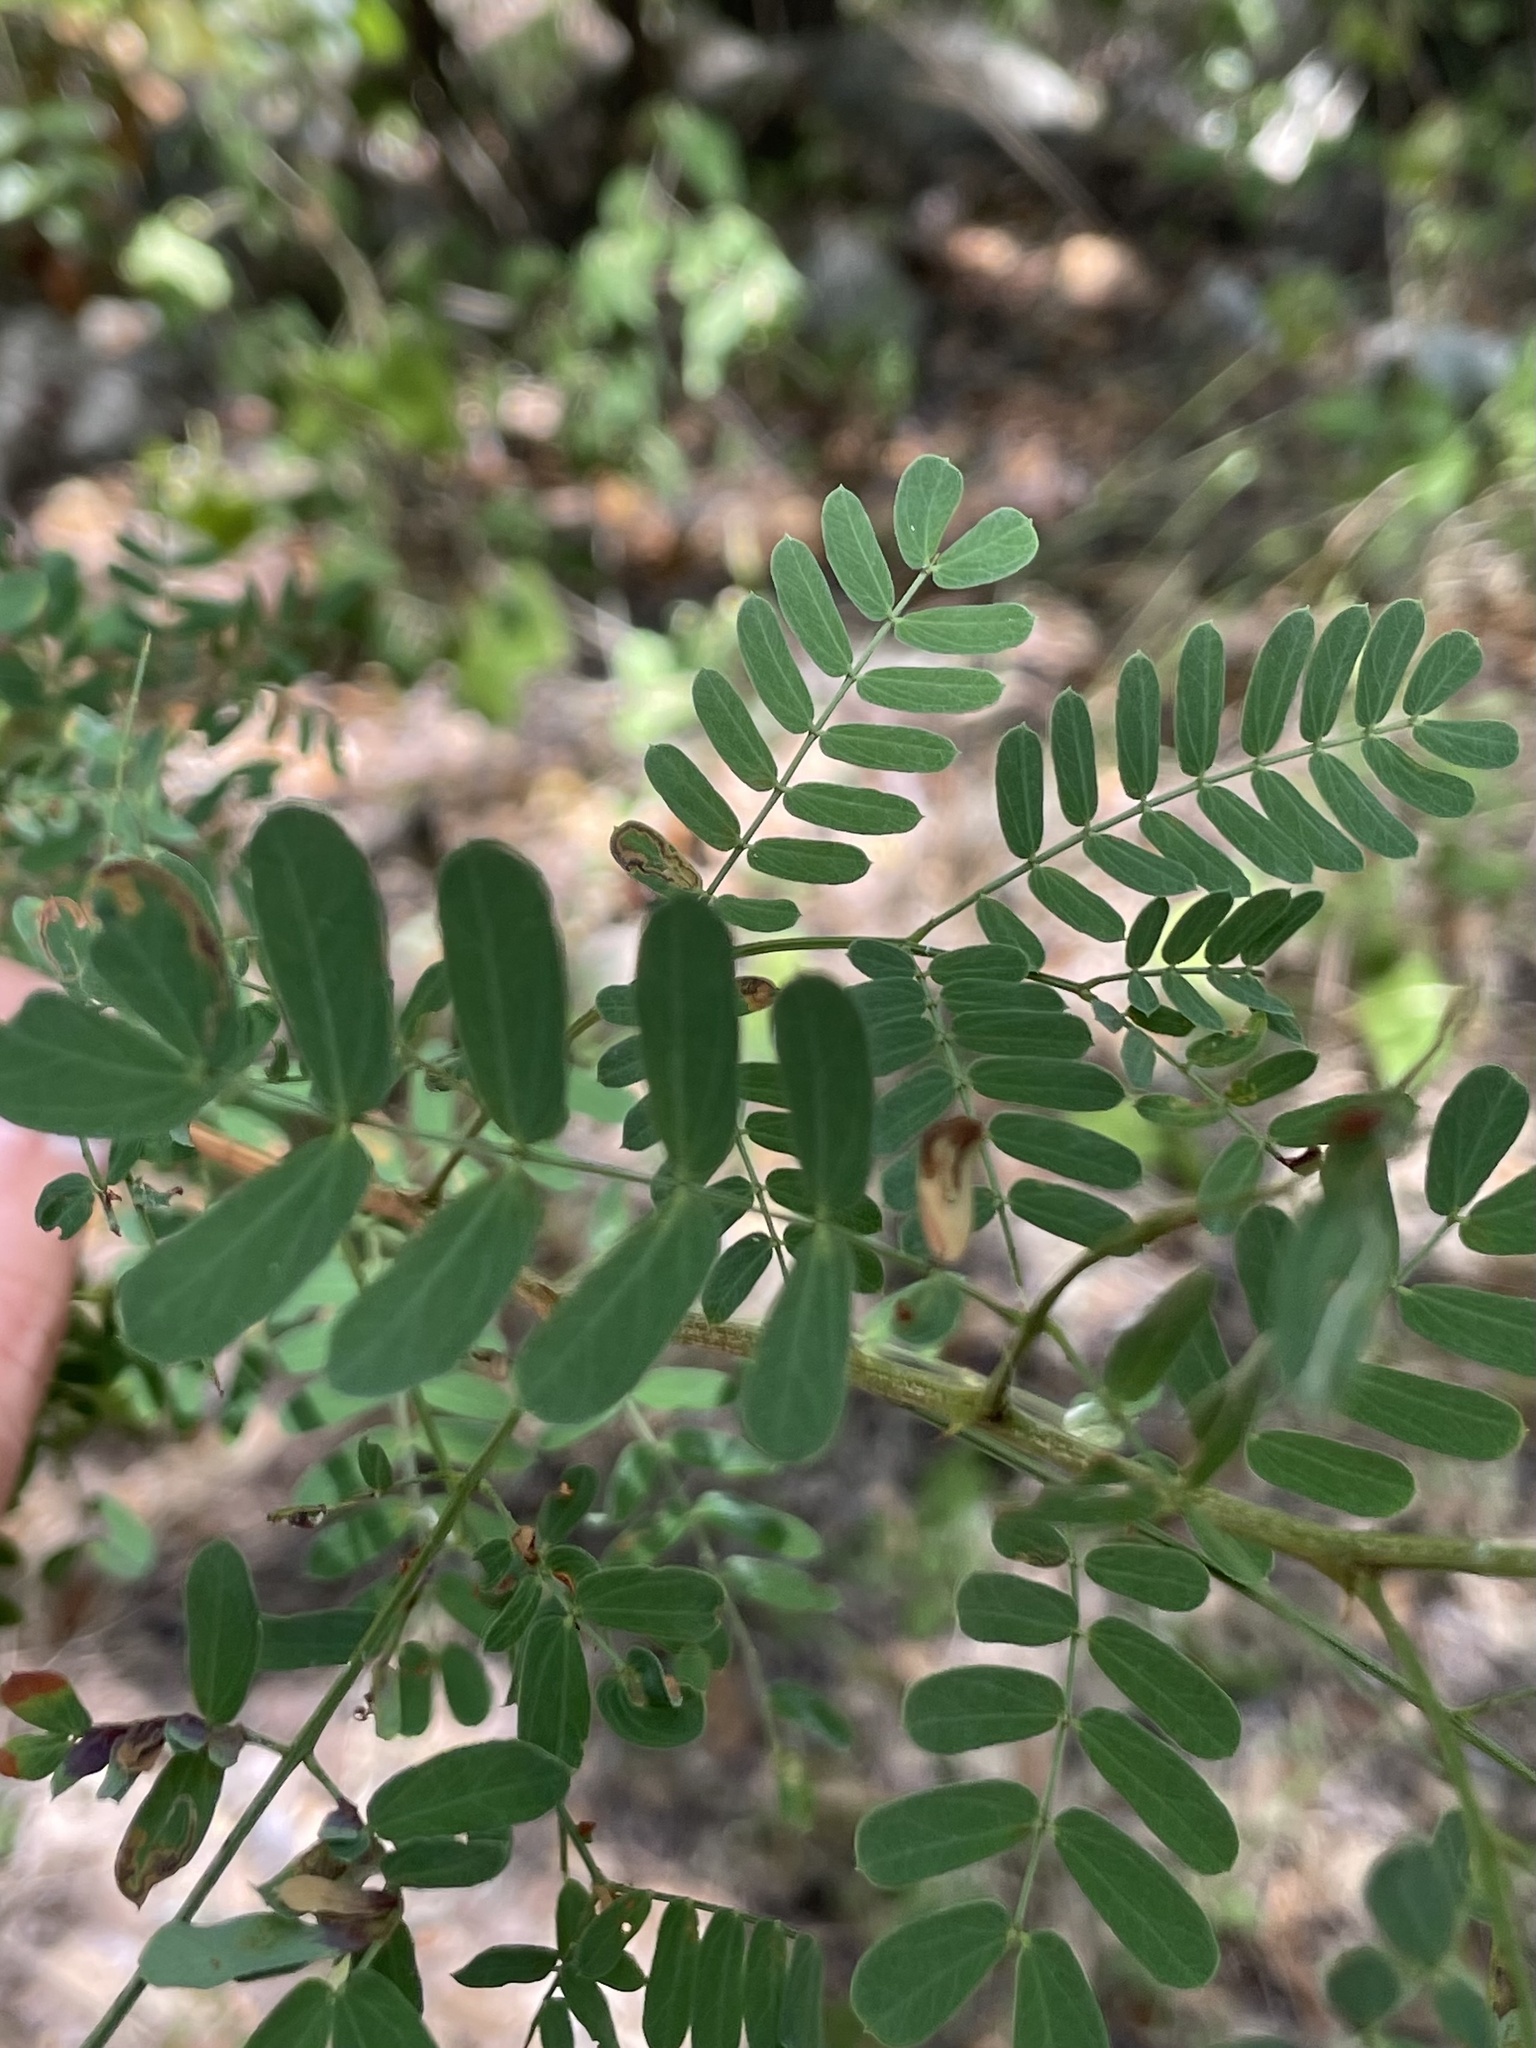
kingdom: Plantae
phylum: Tracheophyta
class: Magnoliopsida
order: Fabales
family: Fabaceae
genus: Senegalia
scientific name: Senegalia roemeriana
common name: Roemer's acacia
